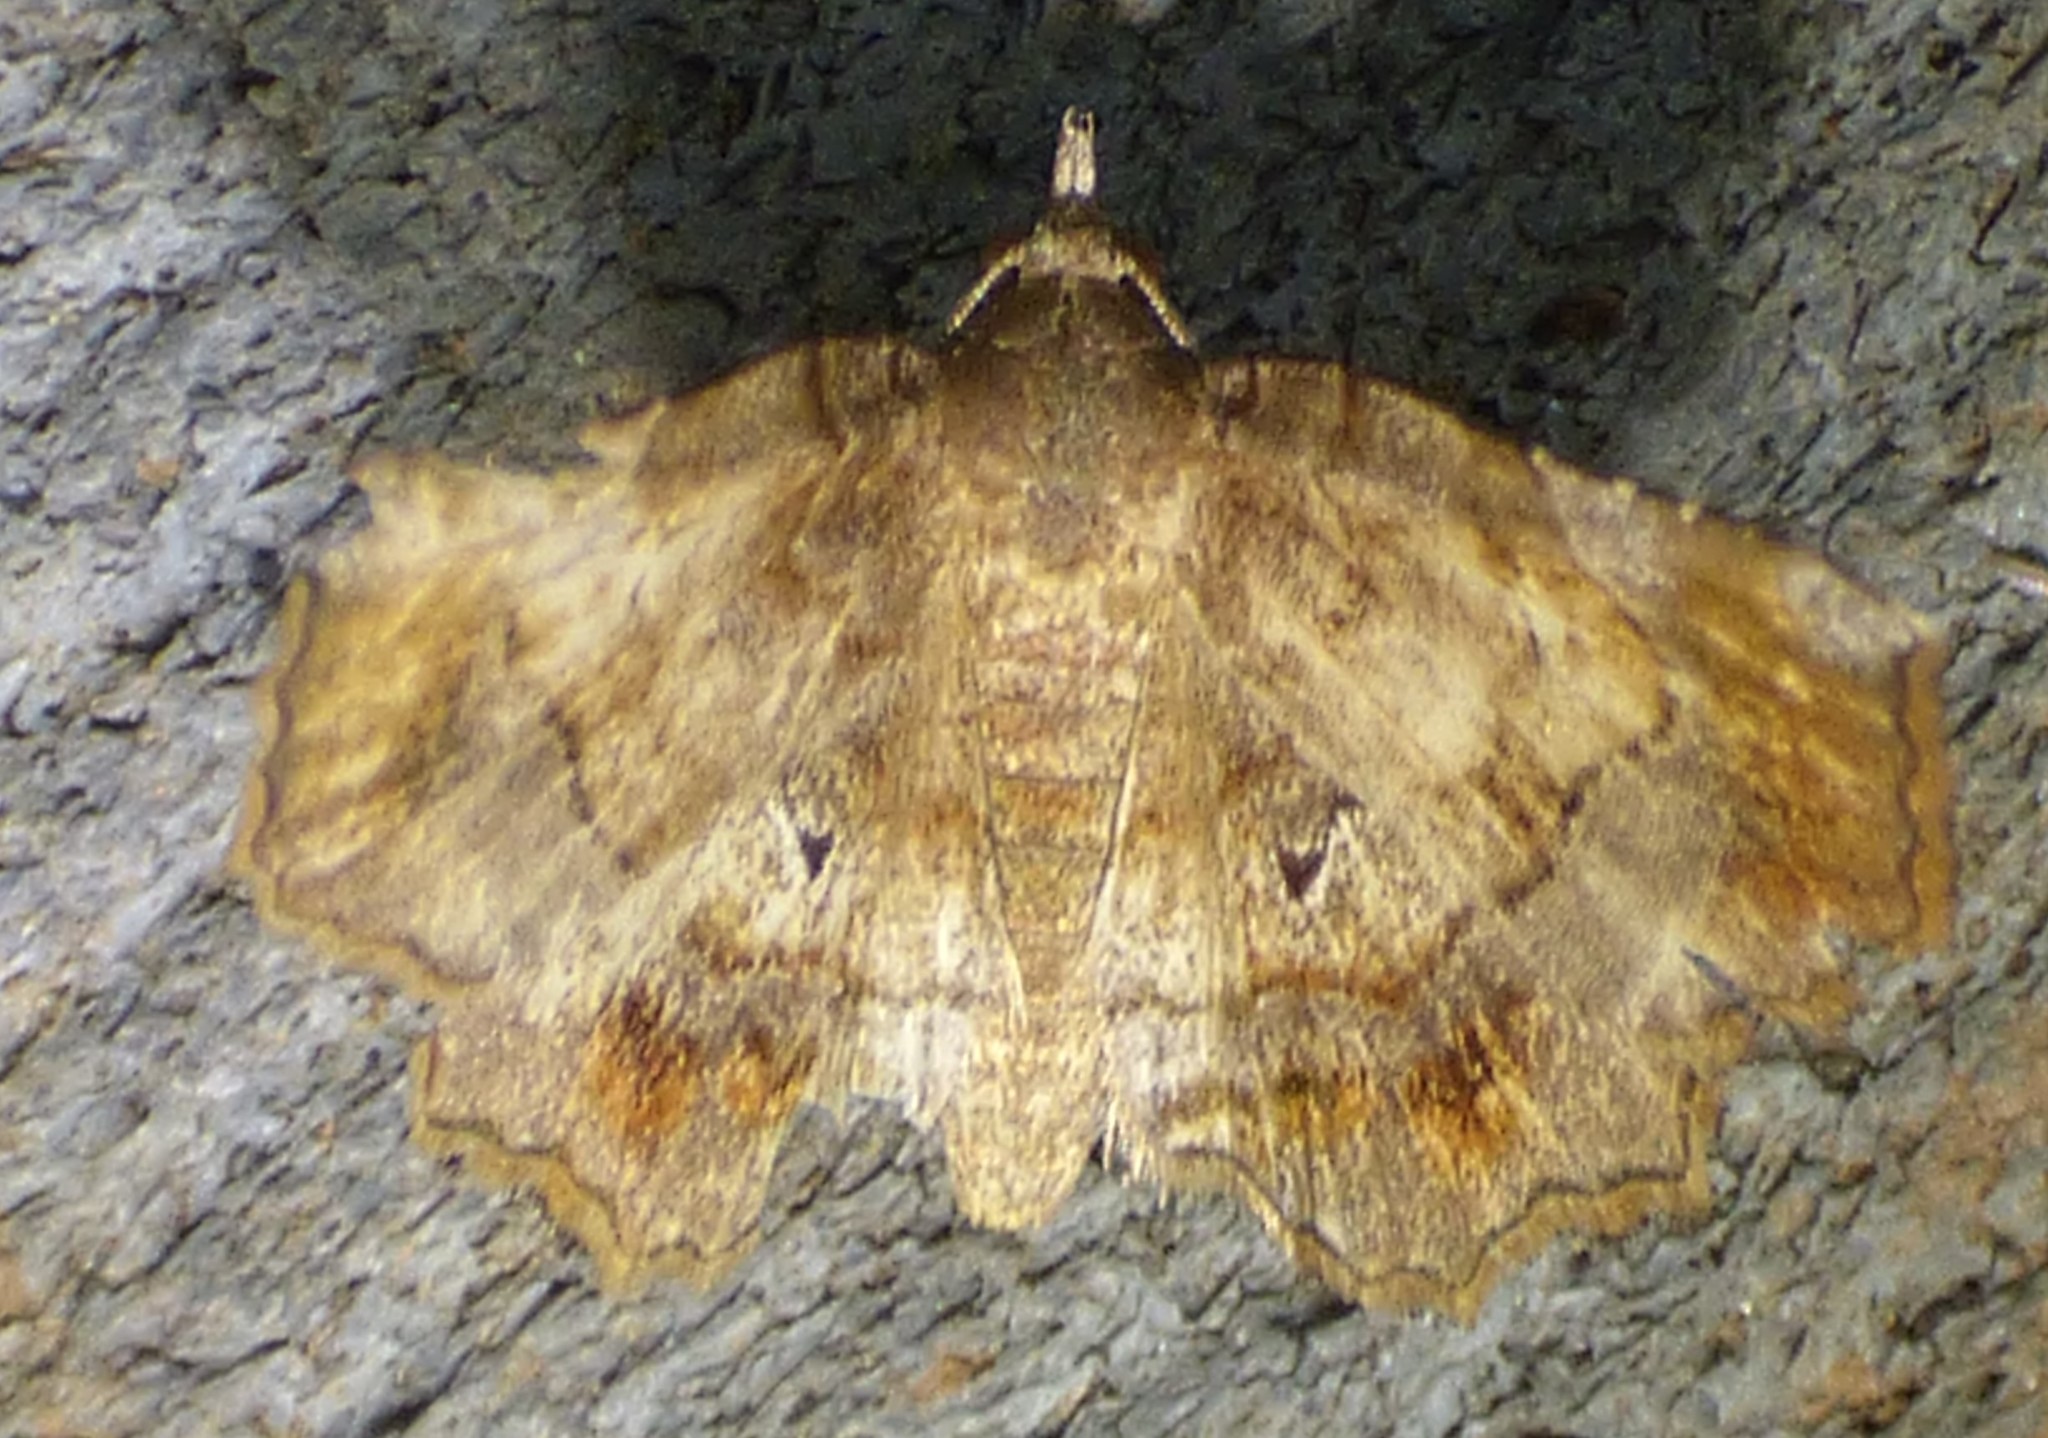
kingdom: Animalia
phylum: Arthropoda
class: Insecta
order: Lepidoptera
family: Erebidae
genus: Pangrapta
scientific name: Pangrapta decoralis
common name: Decorated owlet
